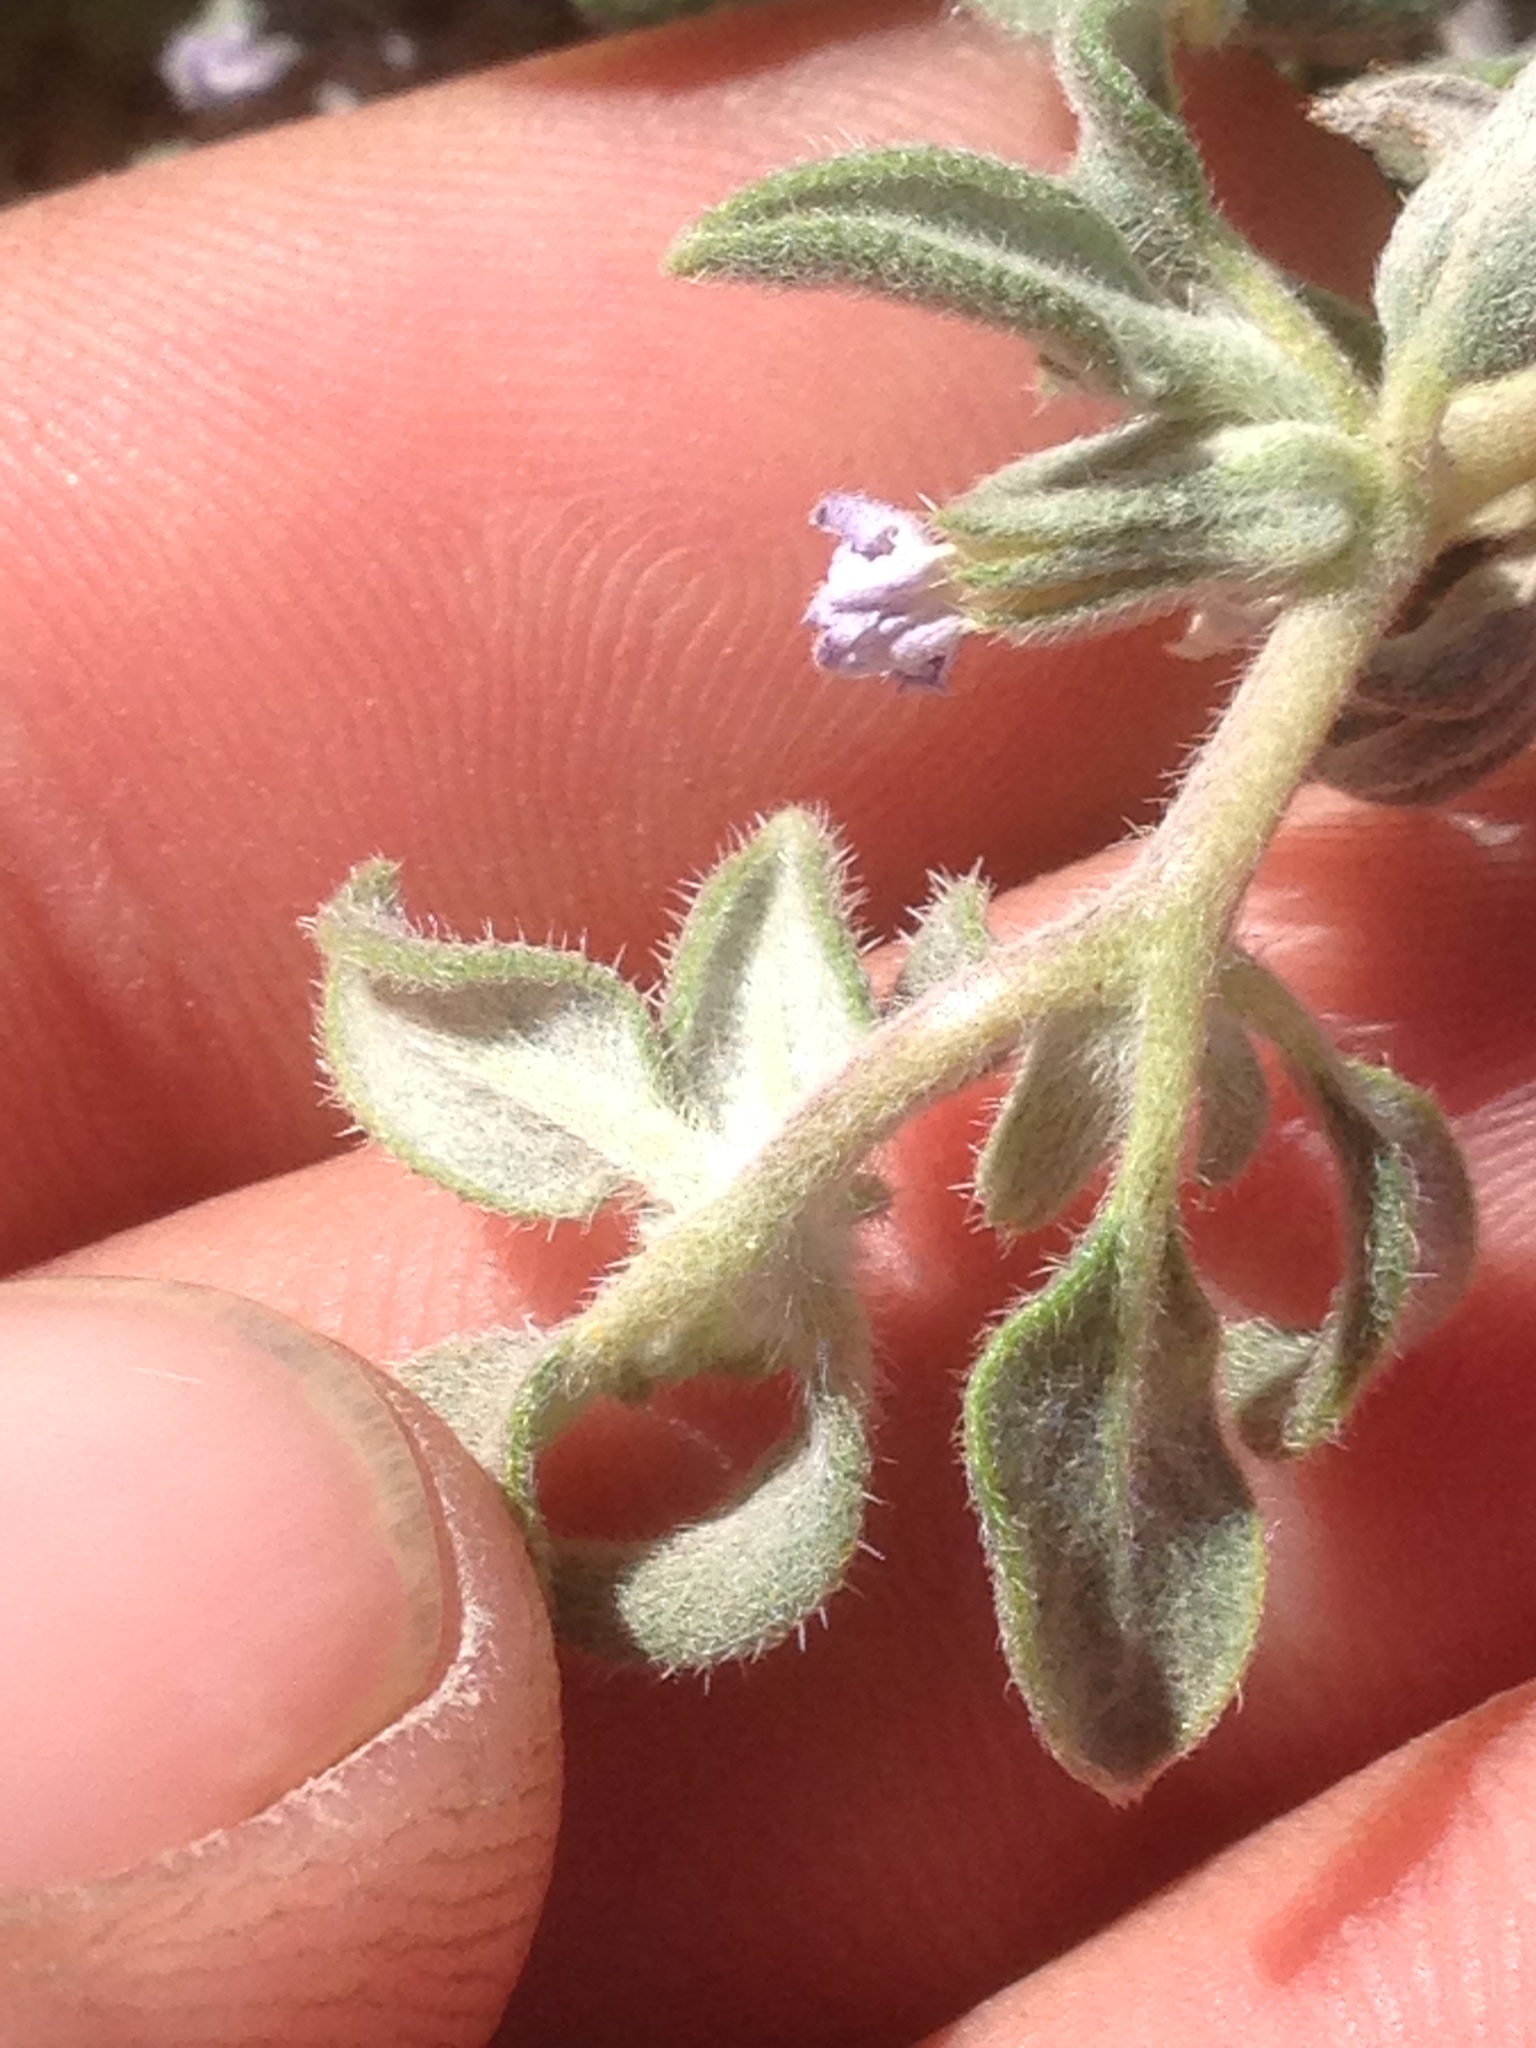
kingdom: Plantae
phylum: Tracheophyta
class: Magnoliopsida
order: Boraginales
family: Ehretiaceae
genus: Tiquilia
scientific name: Tiquilia canescens
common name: Hairy tiquilia
